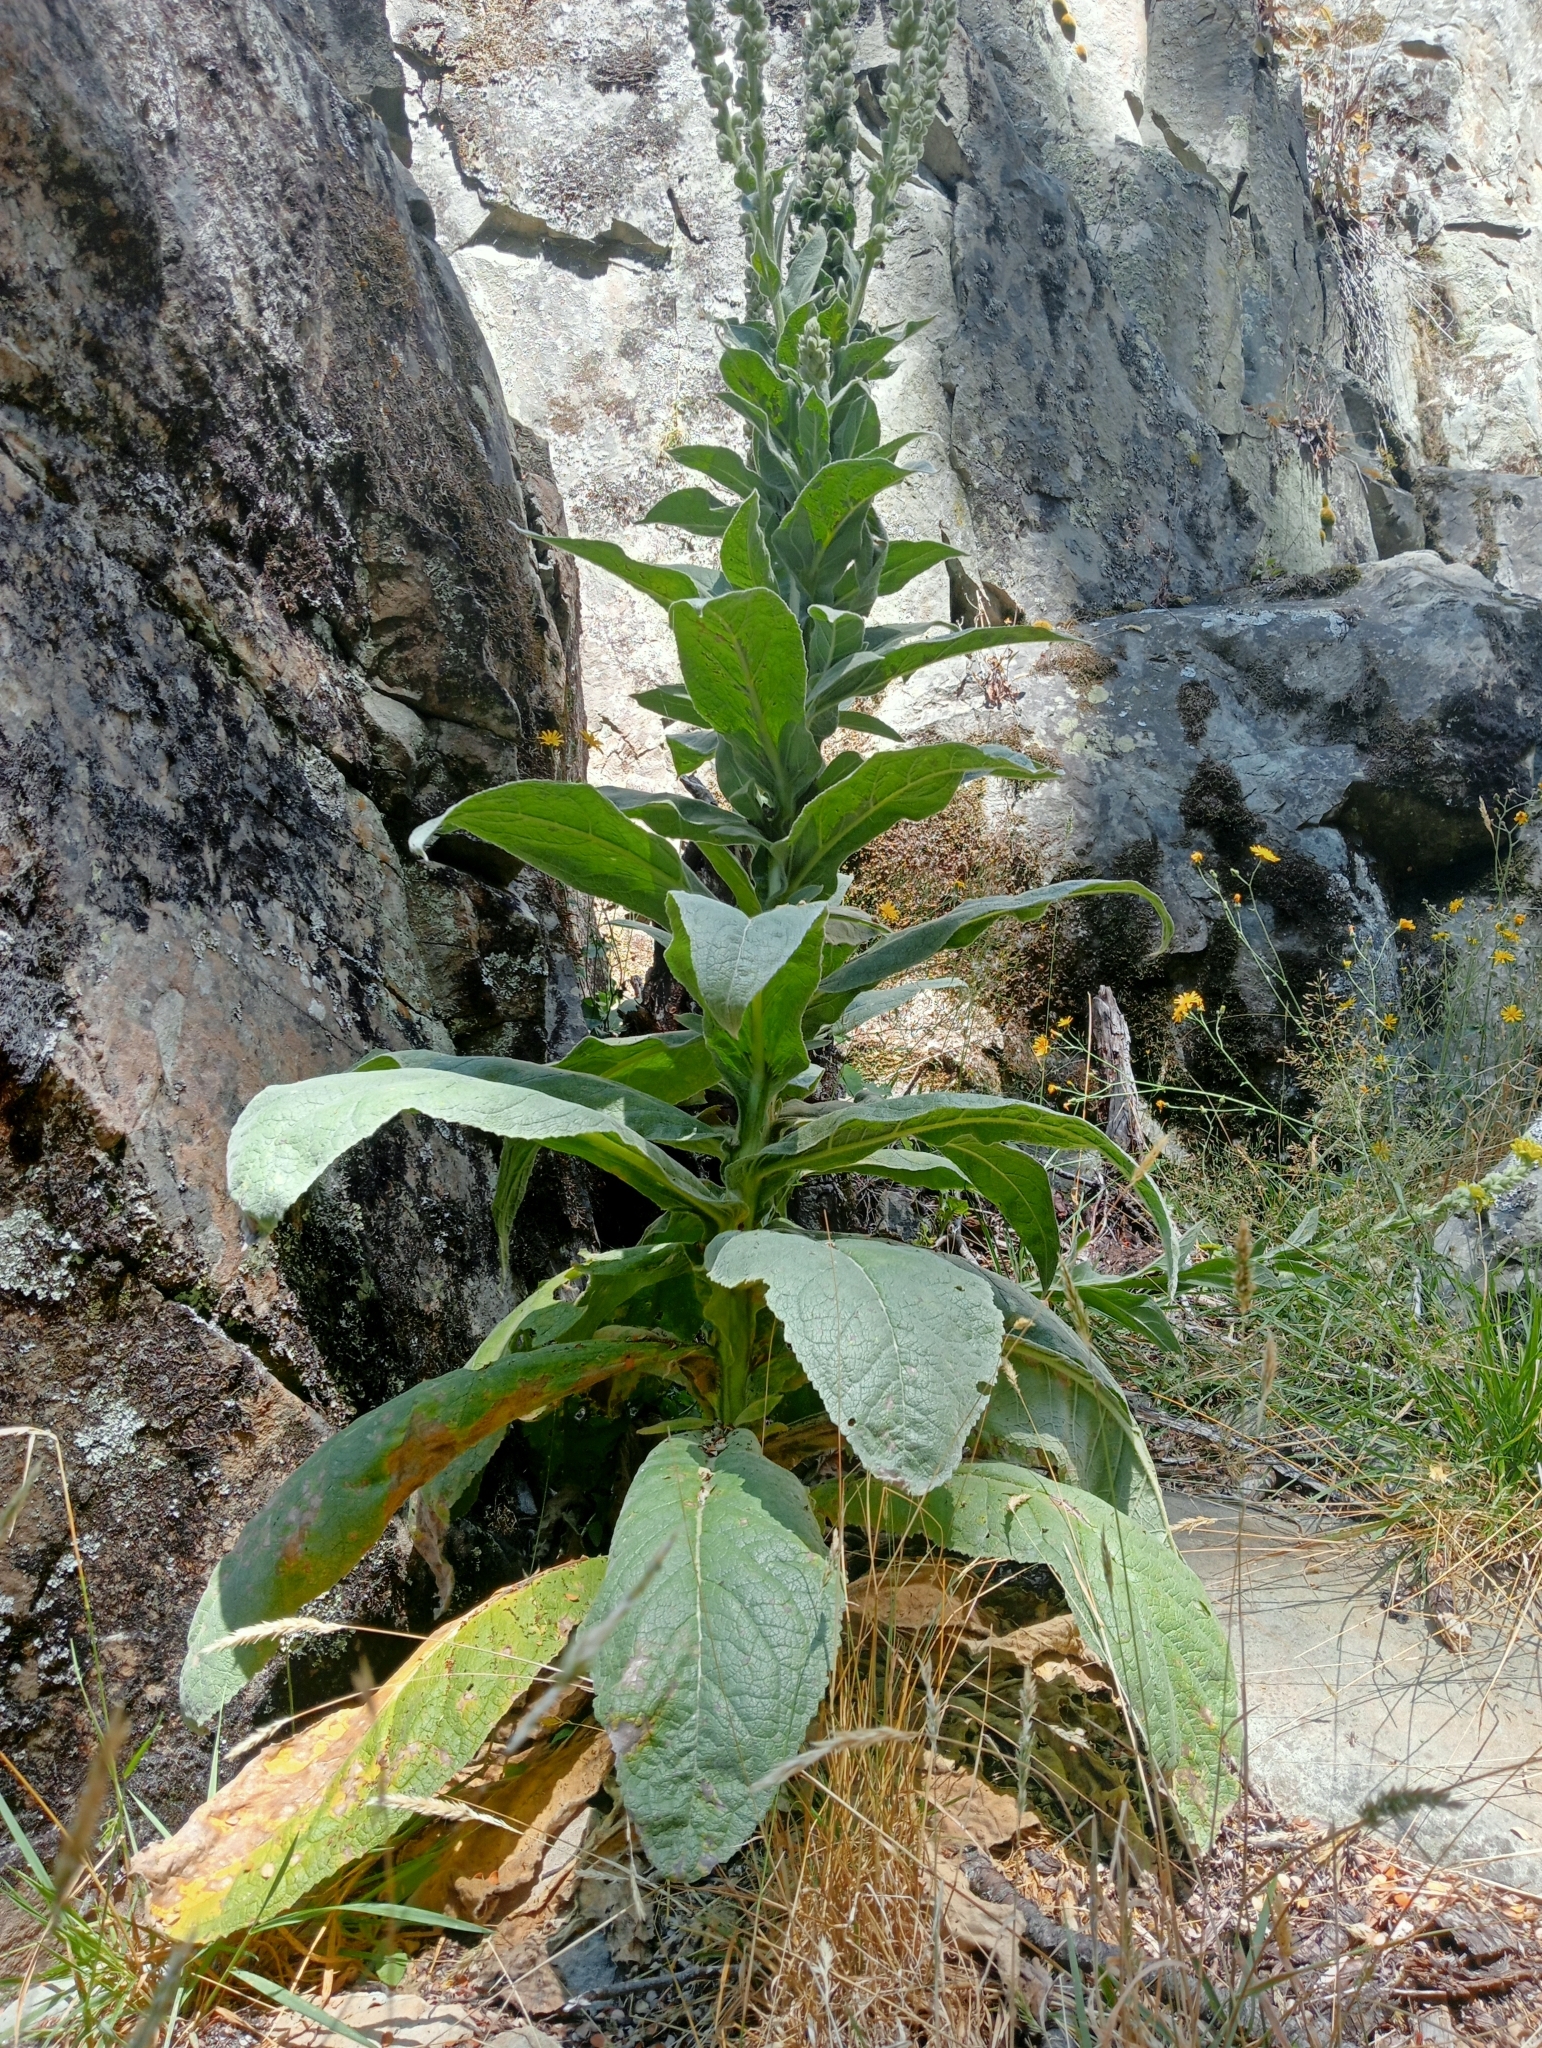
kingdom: Plantae
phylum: Tracheophyta
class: Magnoliopsida
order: Lamiales
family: Scrophulariaceae
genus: Verbascum
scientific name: Verbascum thapsus
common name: Common mullein
